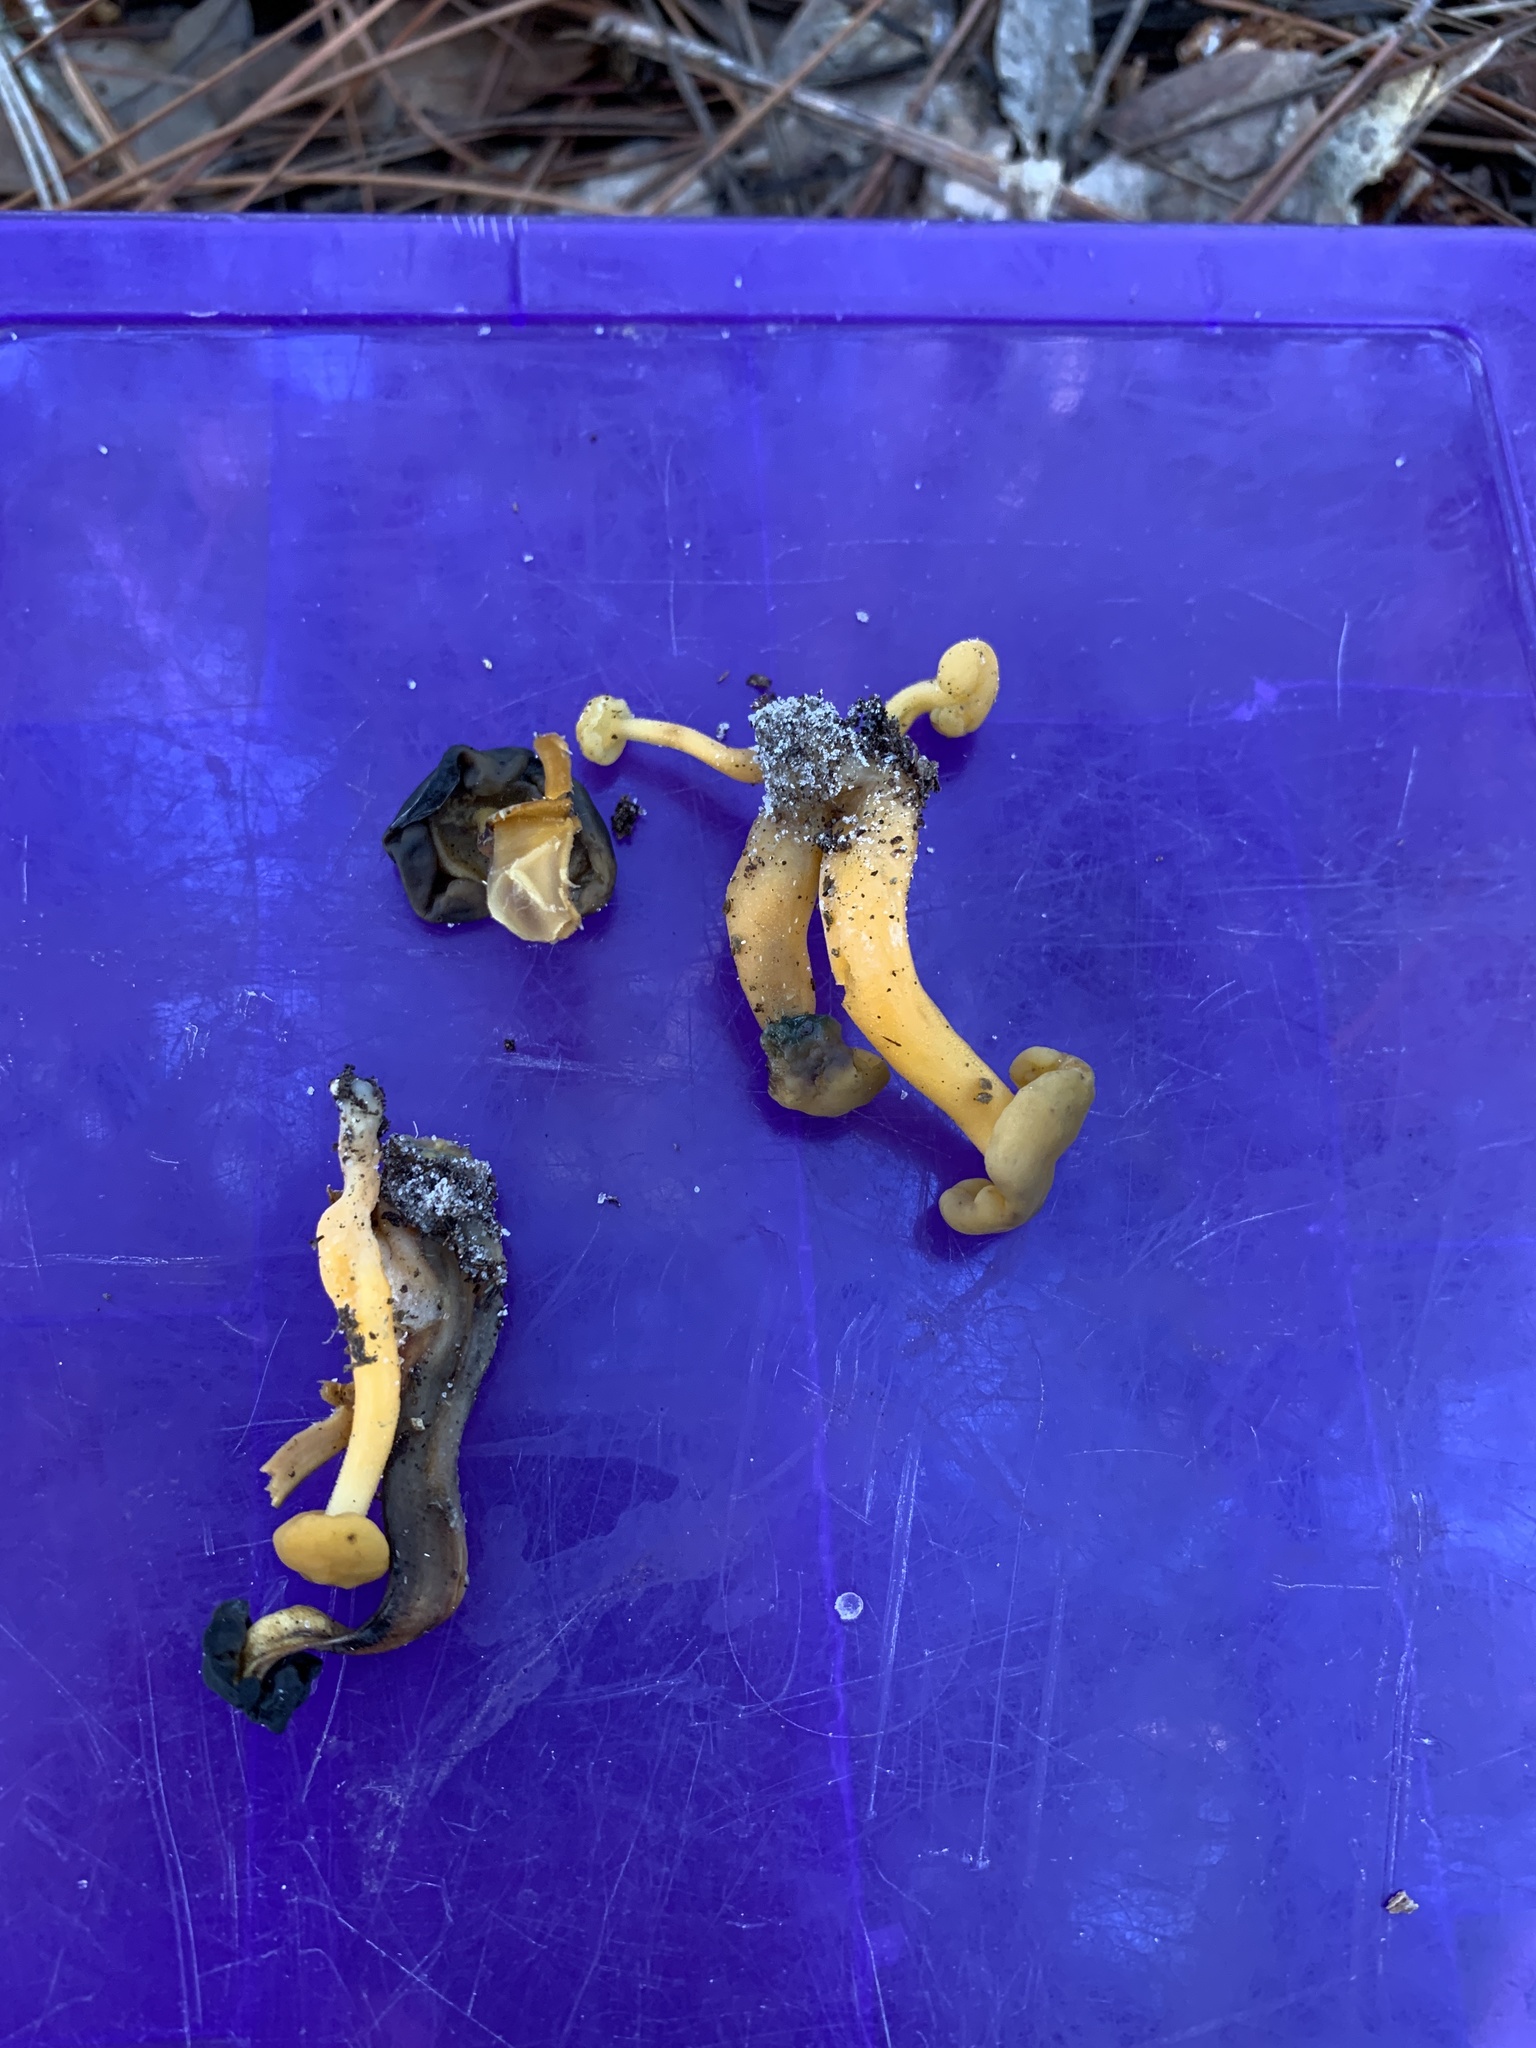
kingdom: Fungi
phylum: Ascomycota
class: Leotiomycetes
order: Leotiales
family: Leotiaceae
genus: Leotia
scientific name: Leotia lubrica
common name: Jellybaby
